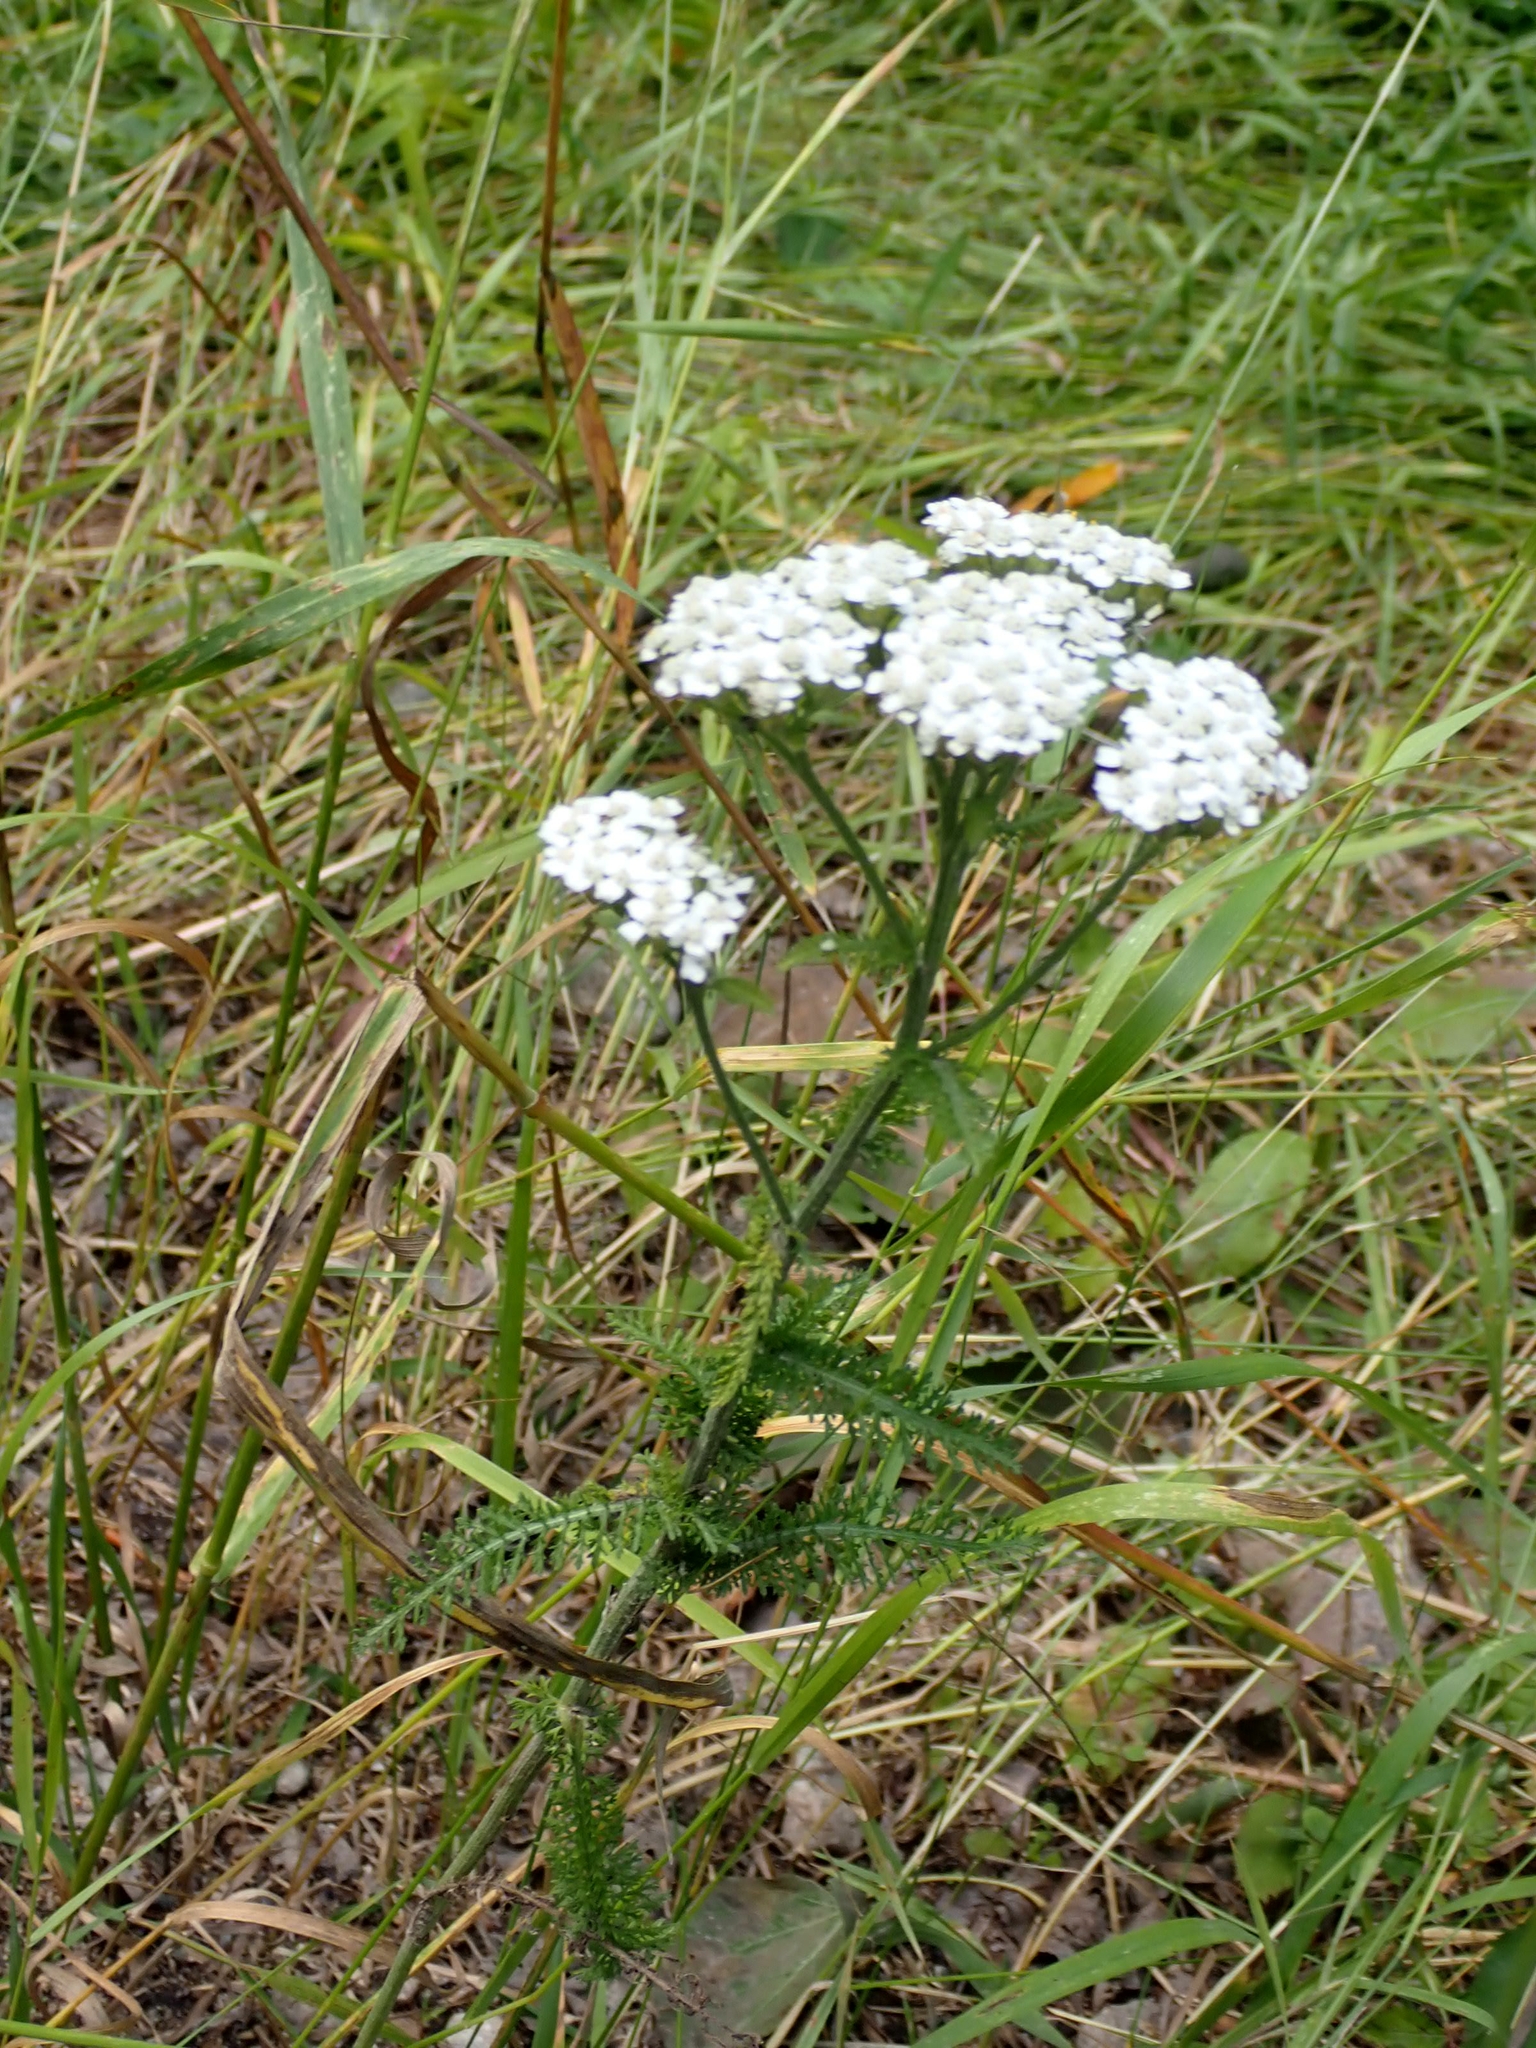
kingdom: Plantae
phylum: Tracheophyta
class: Magnoliopsida
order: Asterales
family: Asteraceae
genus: Achillea
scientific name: Achillea millefolium
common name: Yarrow
